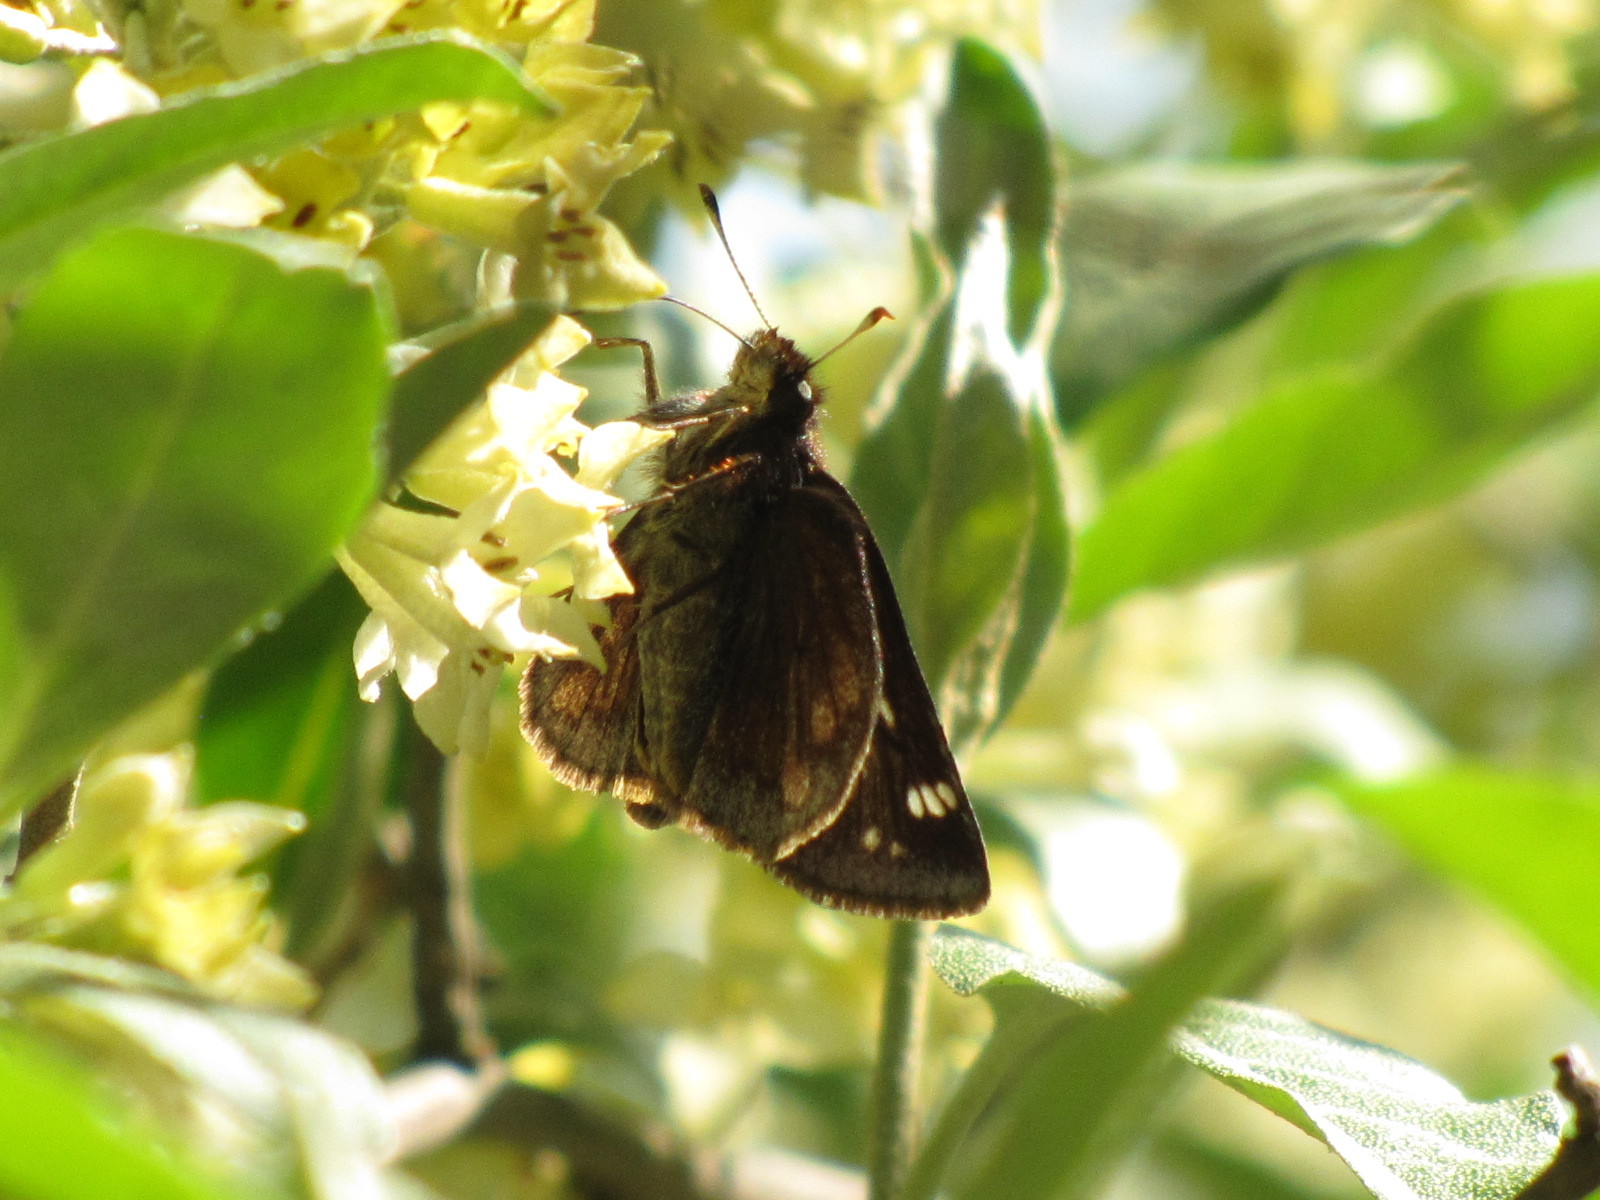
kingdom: Animalia
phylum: Arthropoda
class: Insecta
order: Lepidoptera
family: Hesperiidae
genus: Lon
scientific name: Lon hobomok
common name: Hobomok skipper
